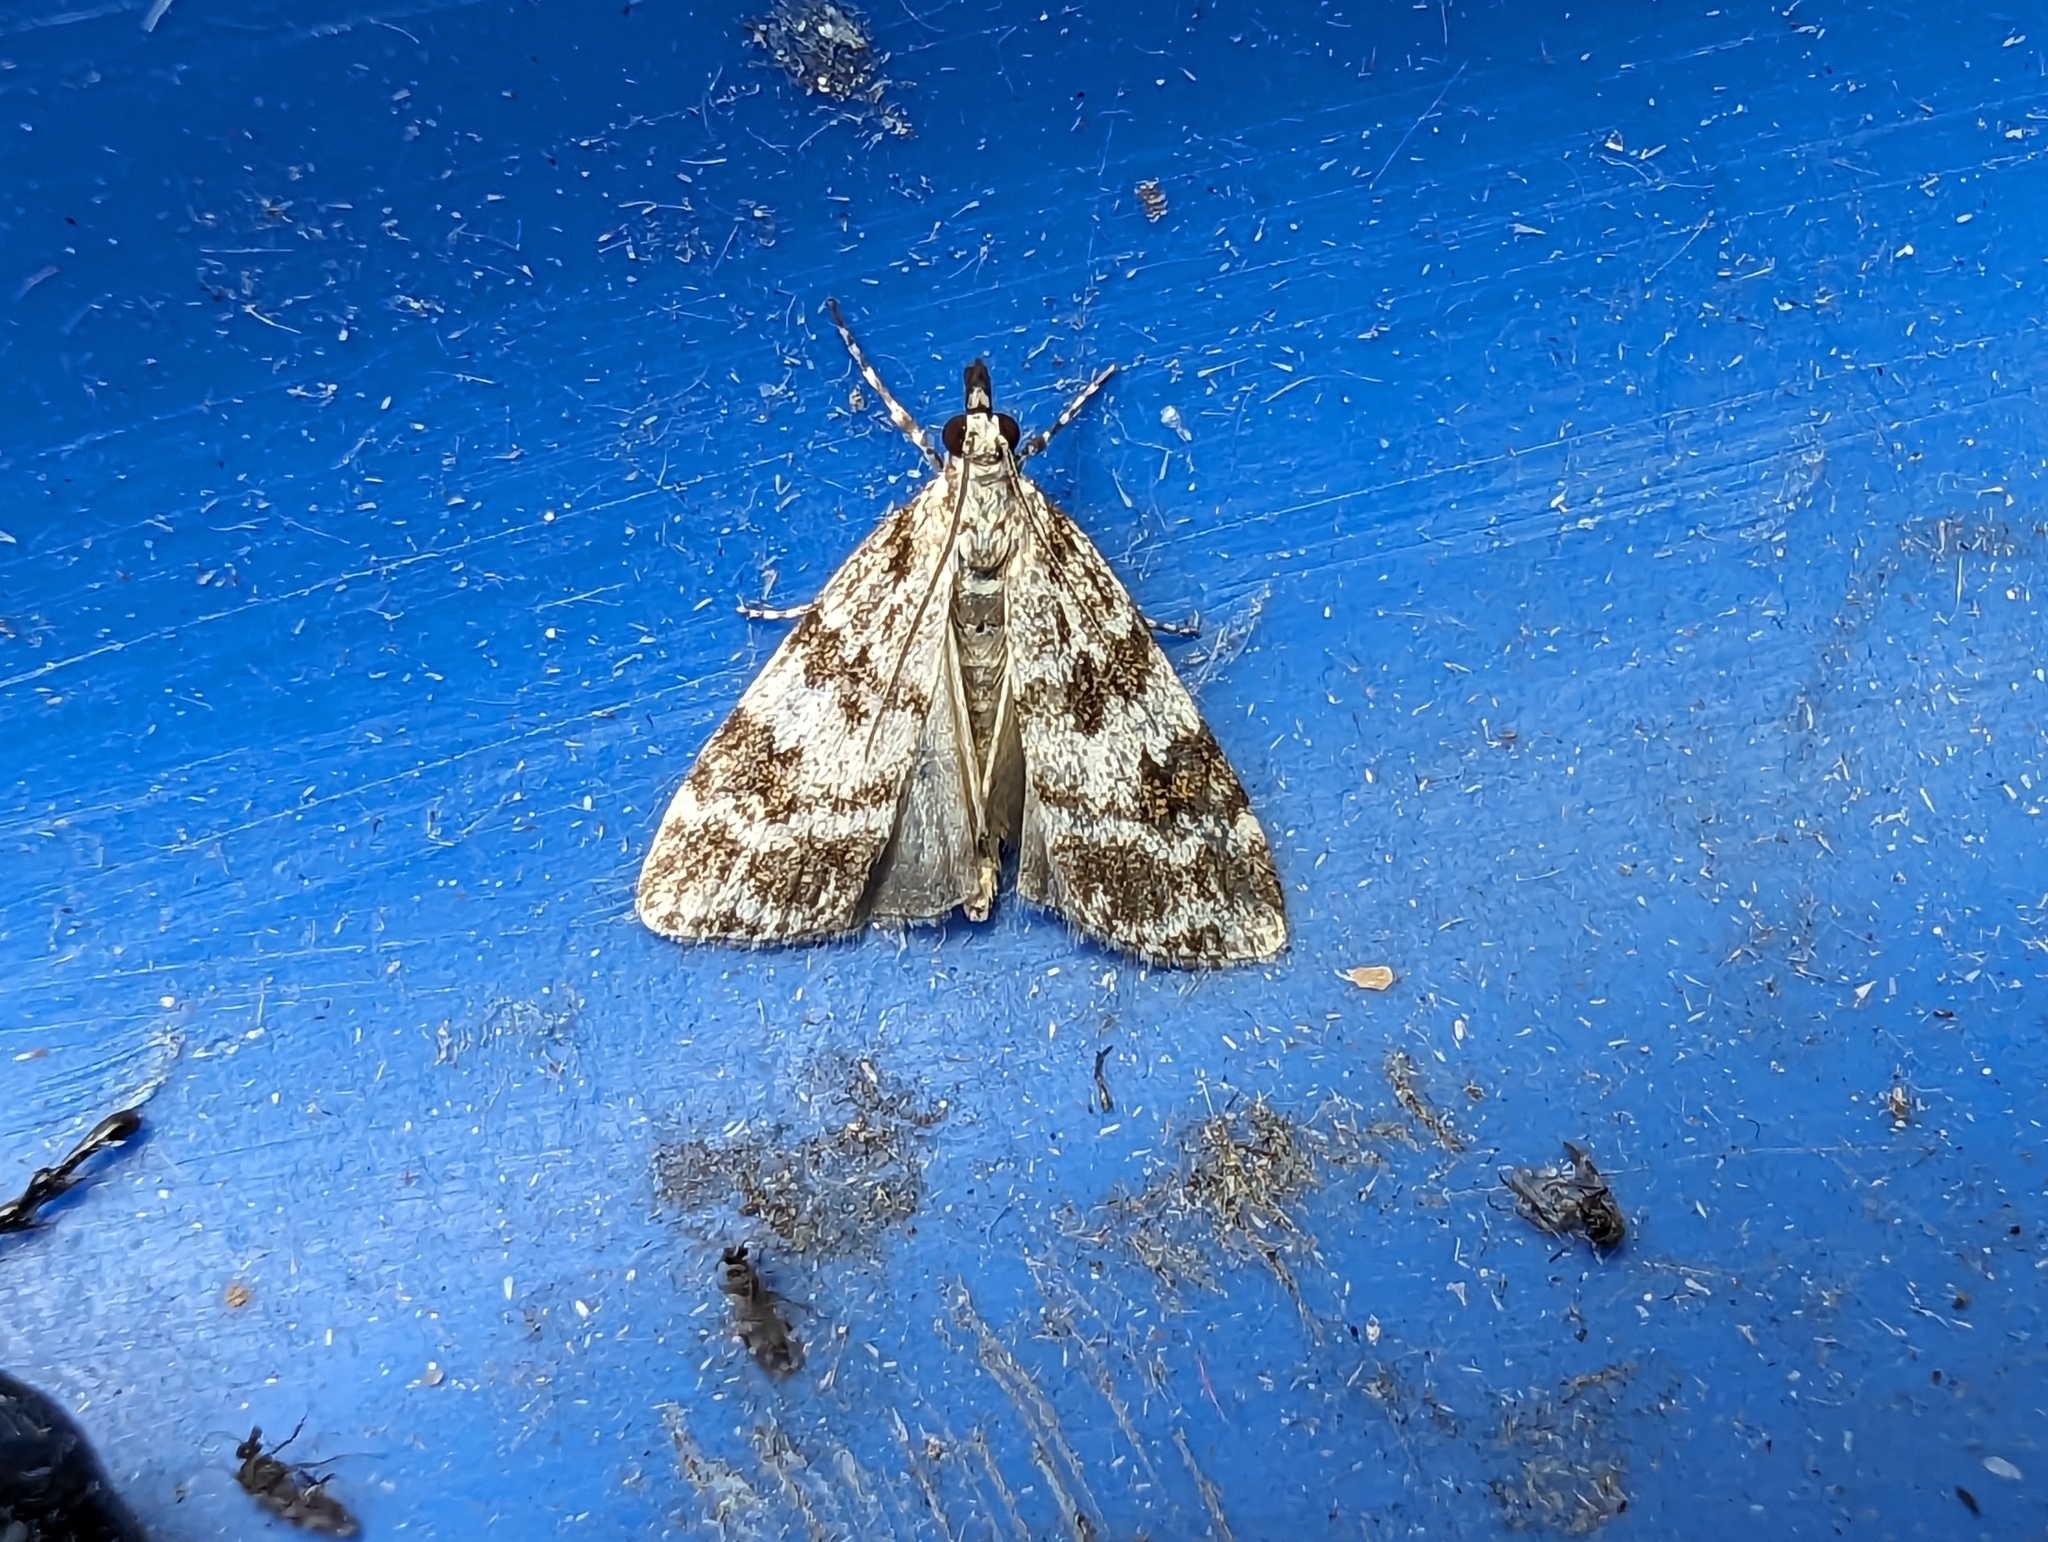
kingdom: Animalia
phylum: Arthropoda
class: Insecta
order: Lepidoptera
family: Crambidae
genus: Scoparia
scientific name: Scoparia pyralella
